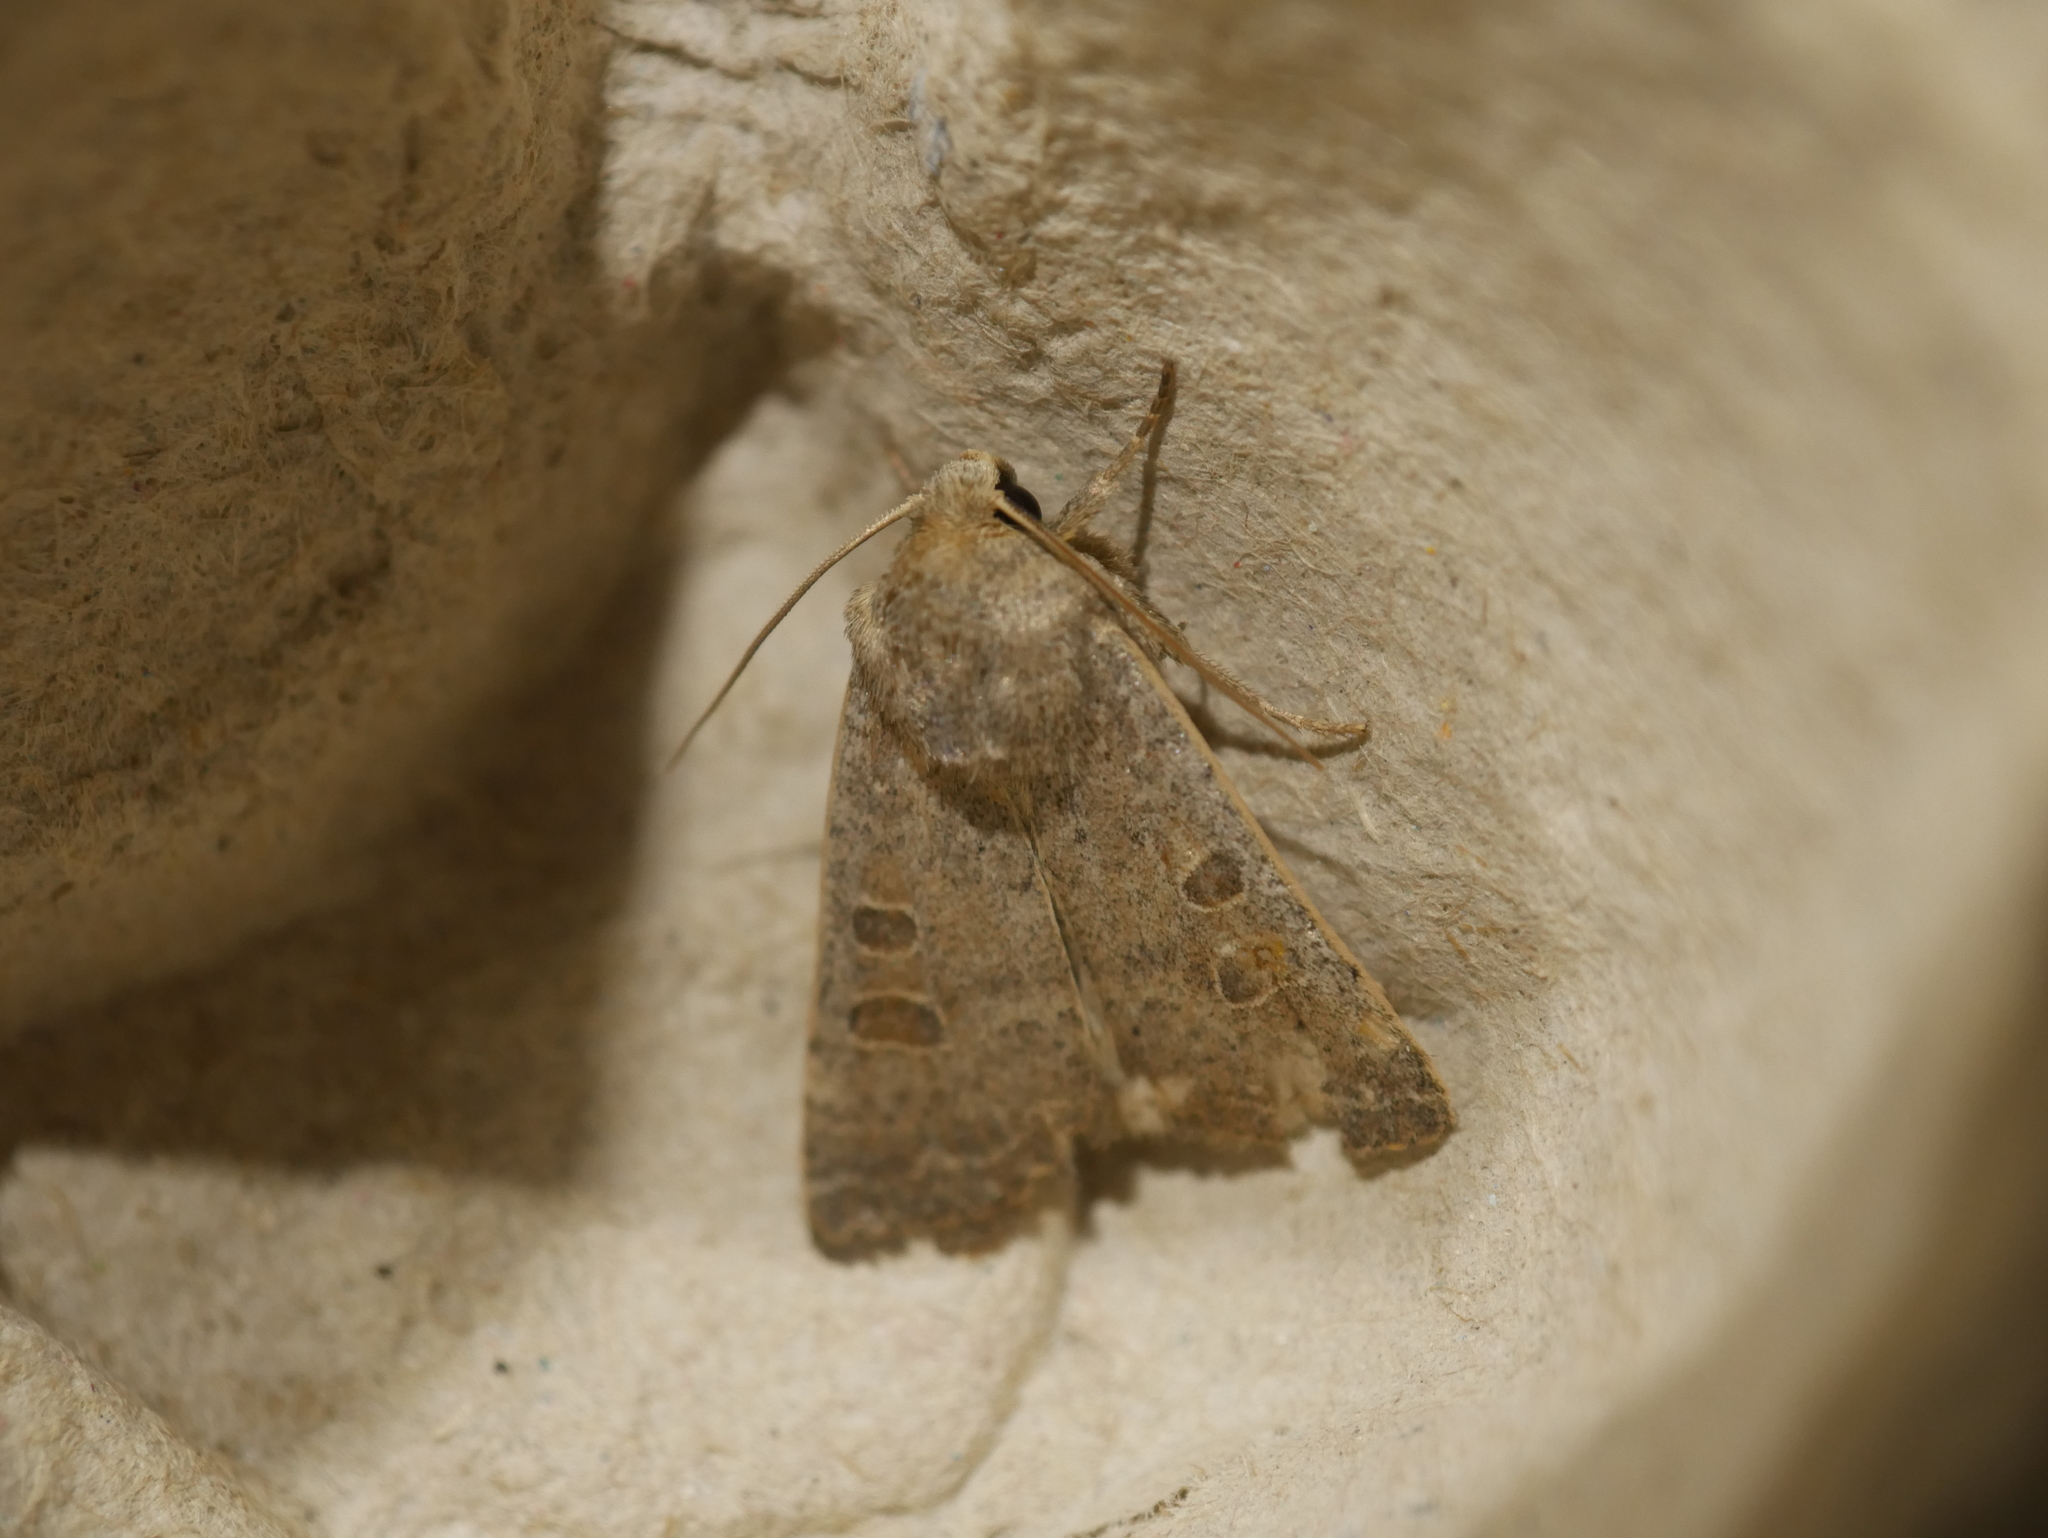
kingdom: Animalia
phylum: Arthropoda
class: Insecta
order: Lepidoptera
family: Noctuidae
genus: Hoplodrina
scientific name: Hoplodrina ambigua
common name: Vine's rustic
